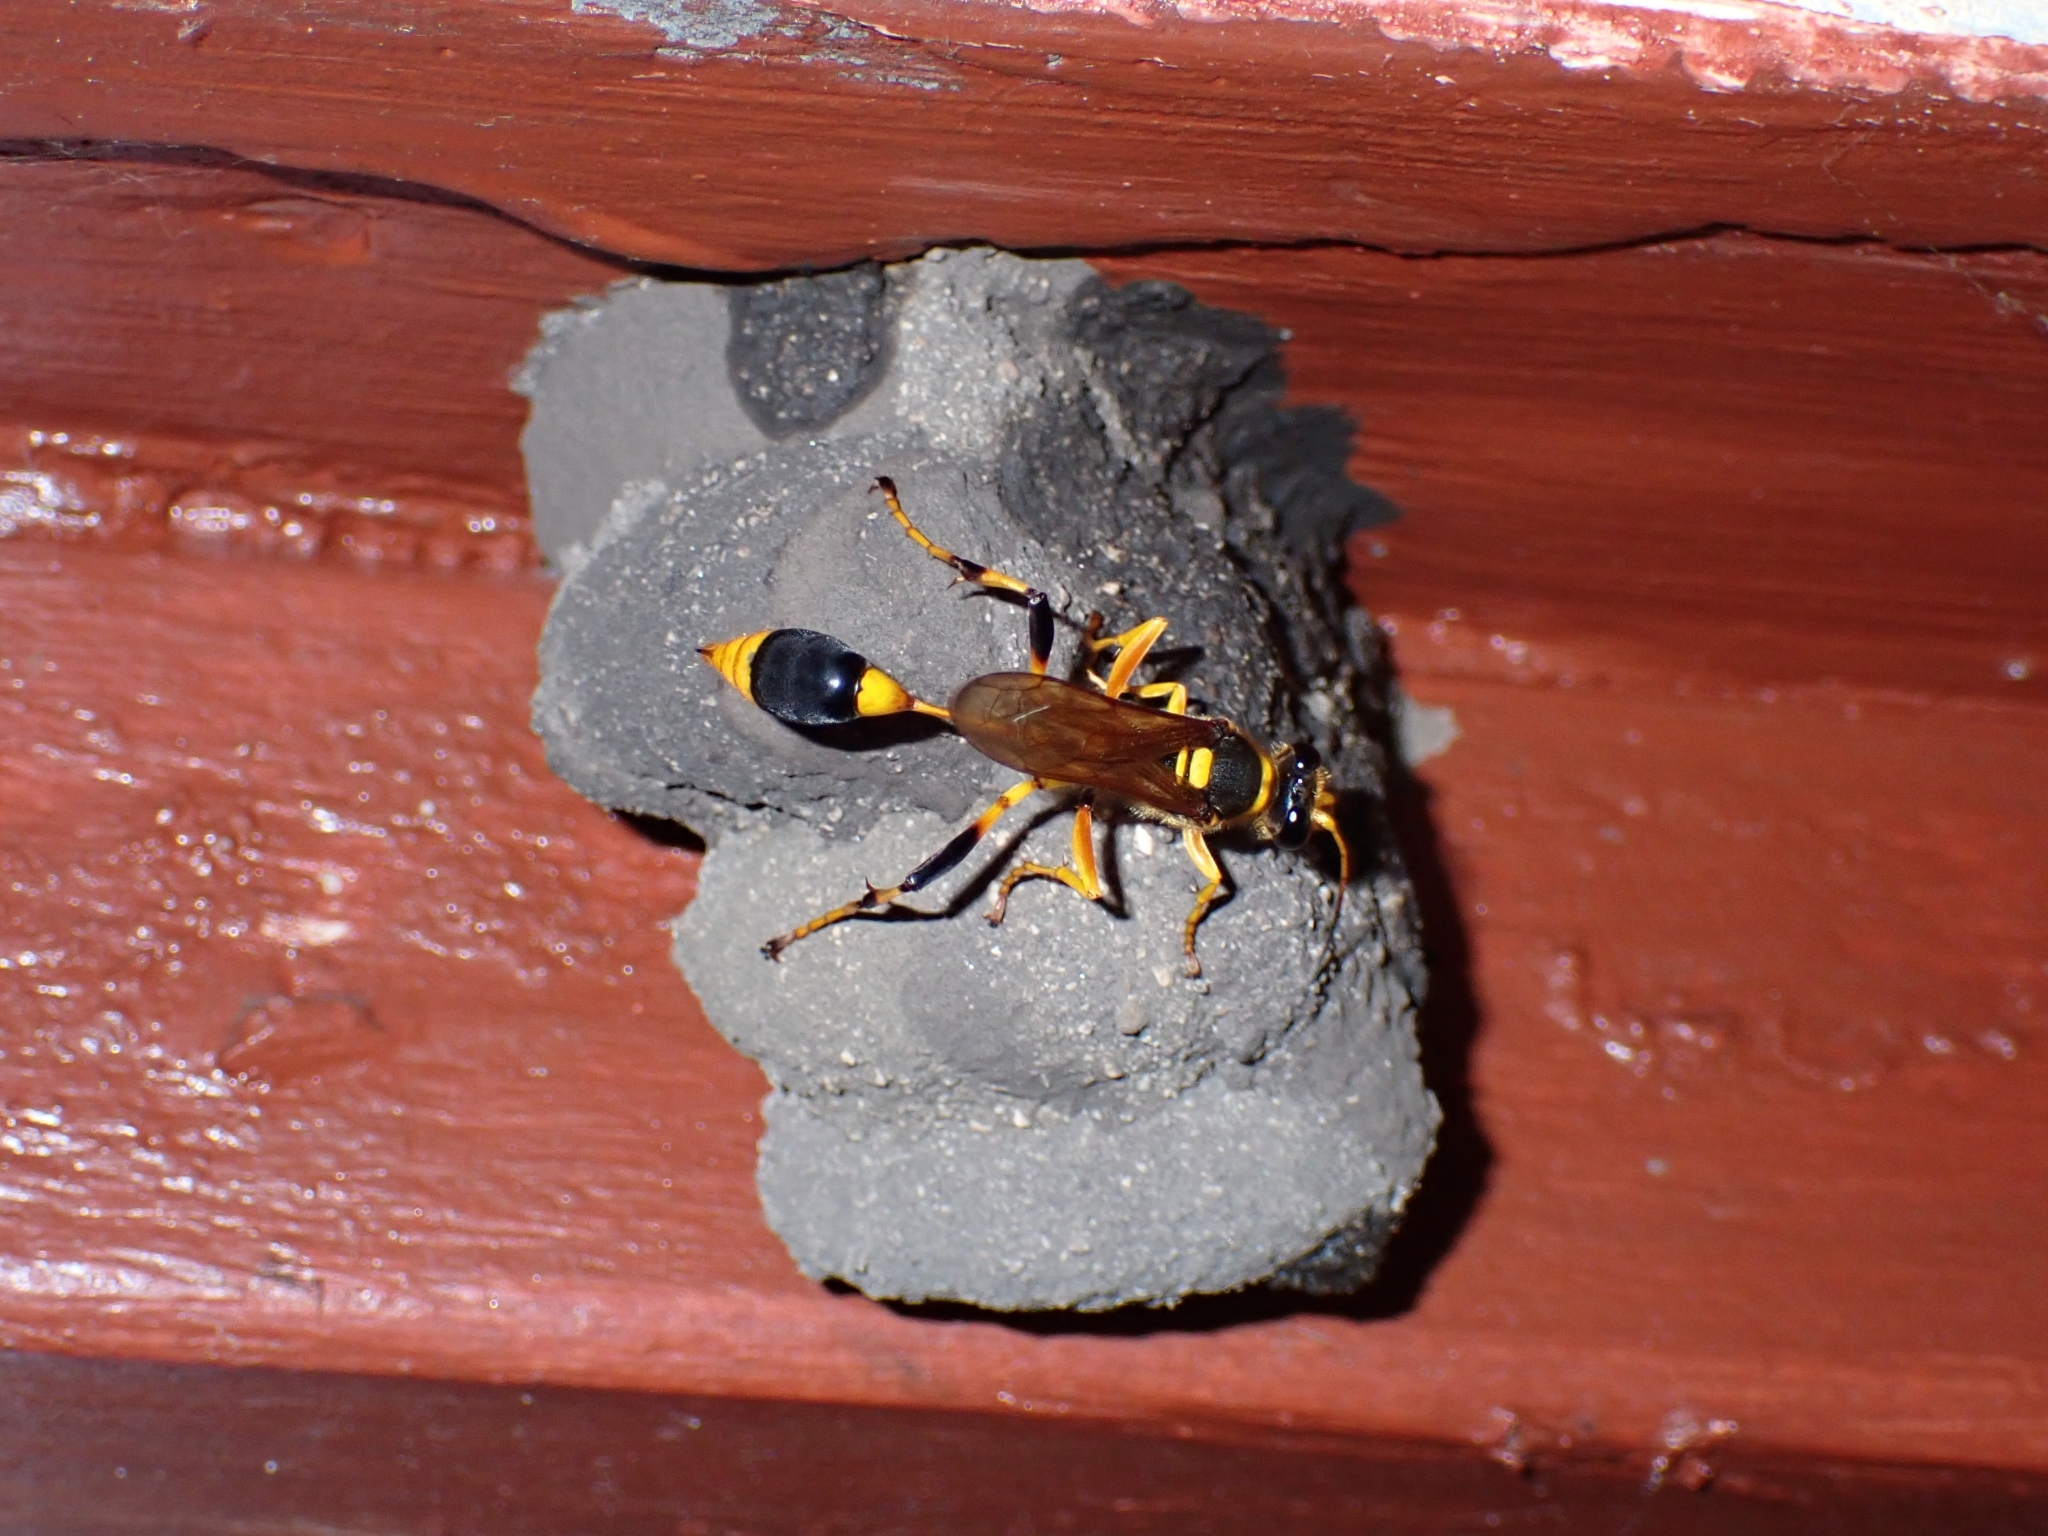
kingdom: Animalia
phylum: Arthropoda
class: Insecta
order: Hymenoptera
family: Sphecidae
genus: Sceliphron
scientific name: Sceliphron laetum
